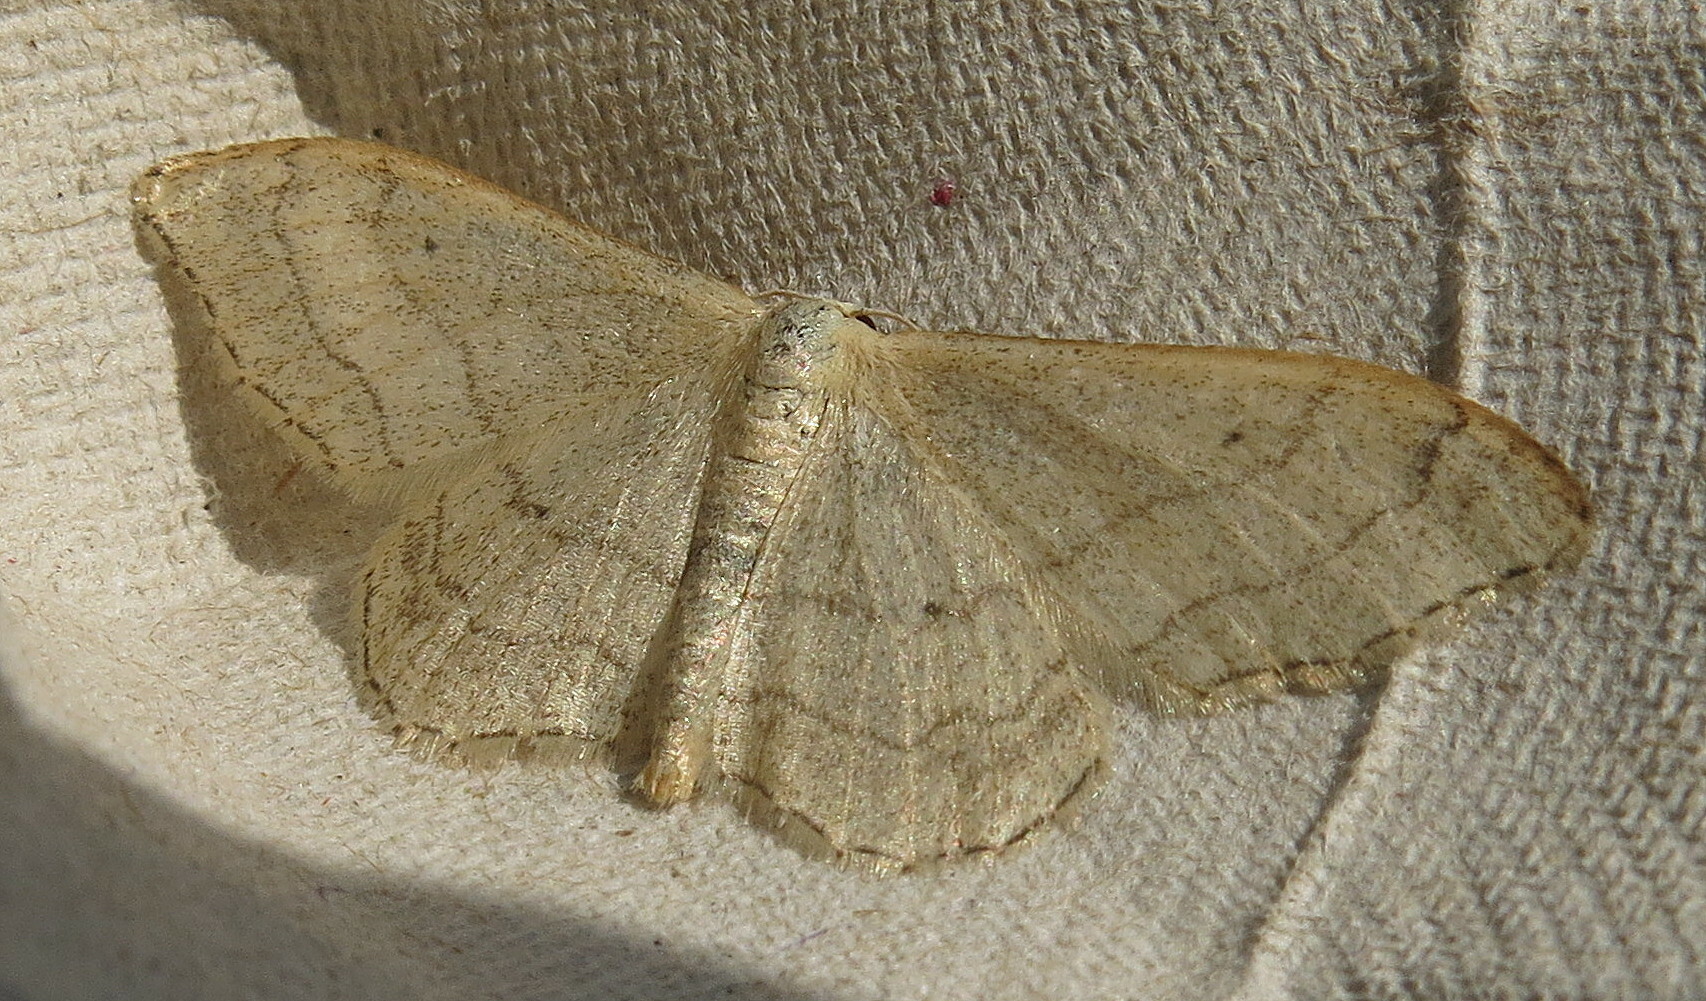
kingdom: Animalia
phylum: Arthropoda
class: Insecta
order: Lepidoptera
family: Geometridae
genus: Idaea
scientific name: Idaea aversata
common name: Riband wave
